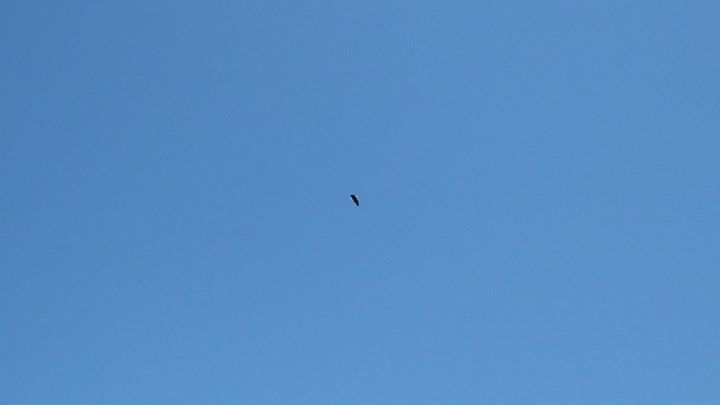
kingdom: Animalia
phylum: Chordata
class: Aves
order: Accipitriformes
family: Accipitridae
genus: Haliaeetus
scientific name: Haliaeetus leucocephalus
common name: Bald eagle
